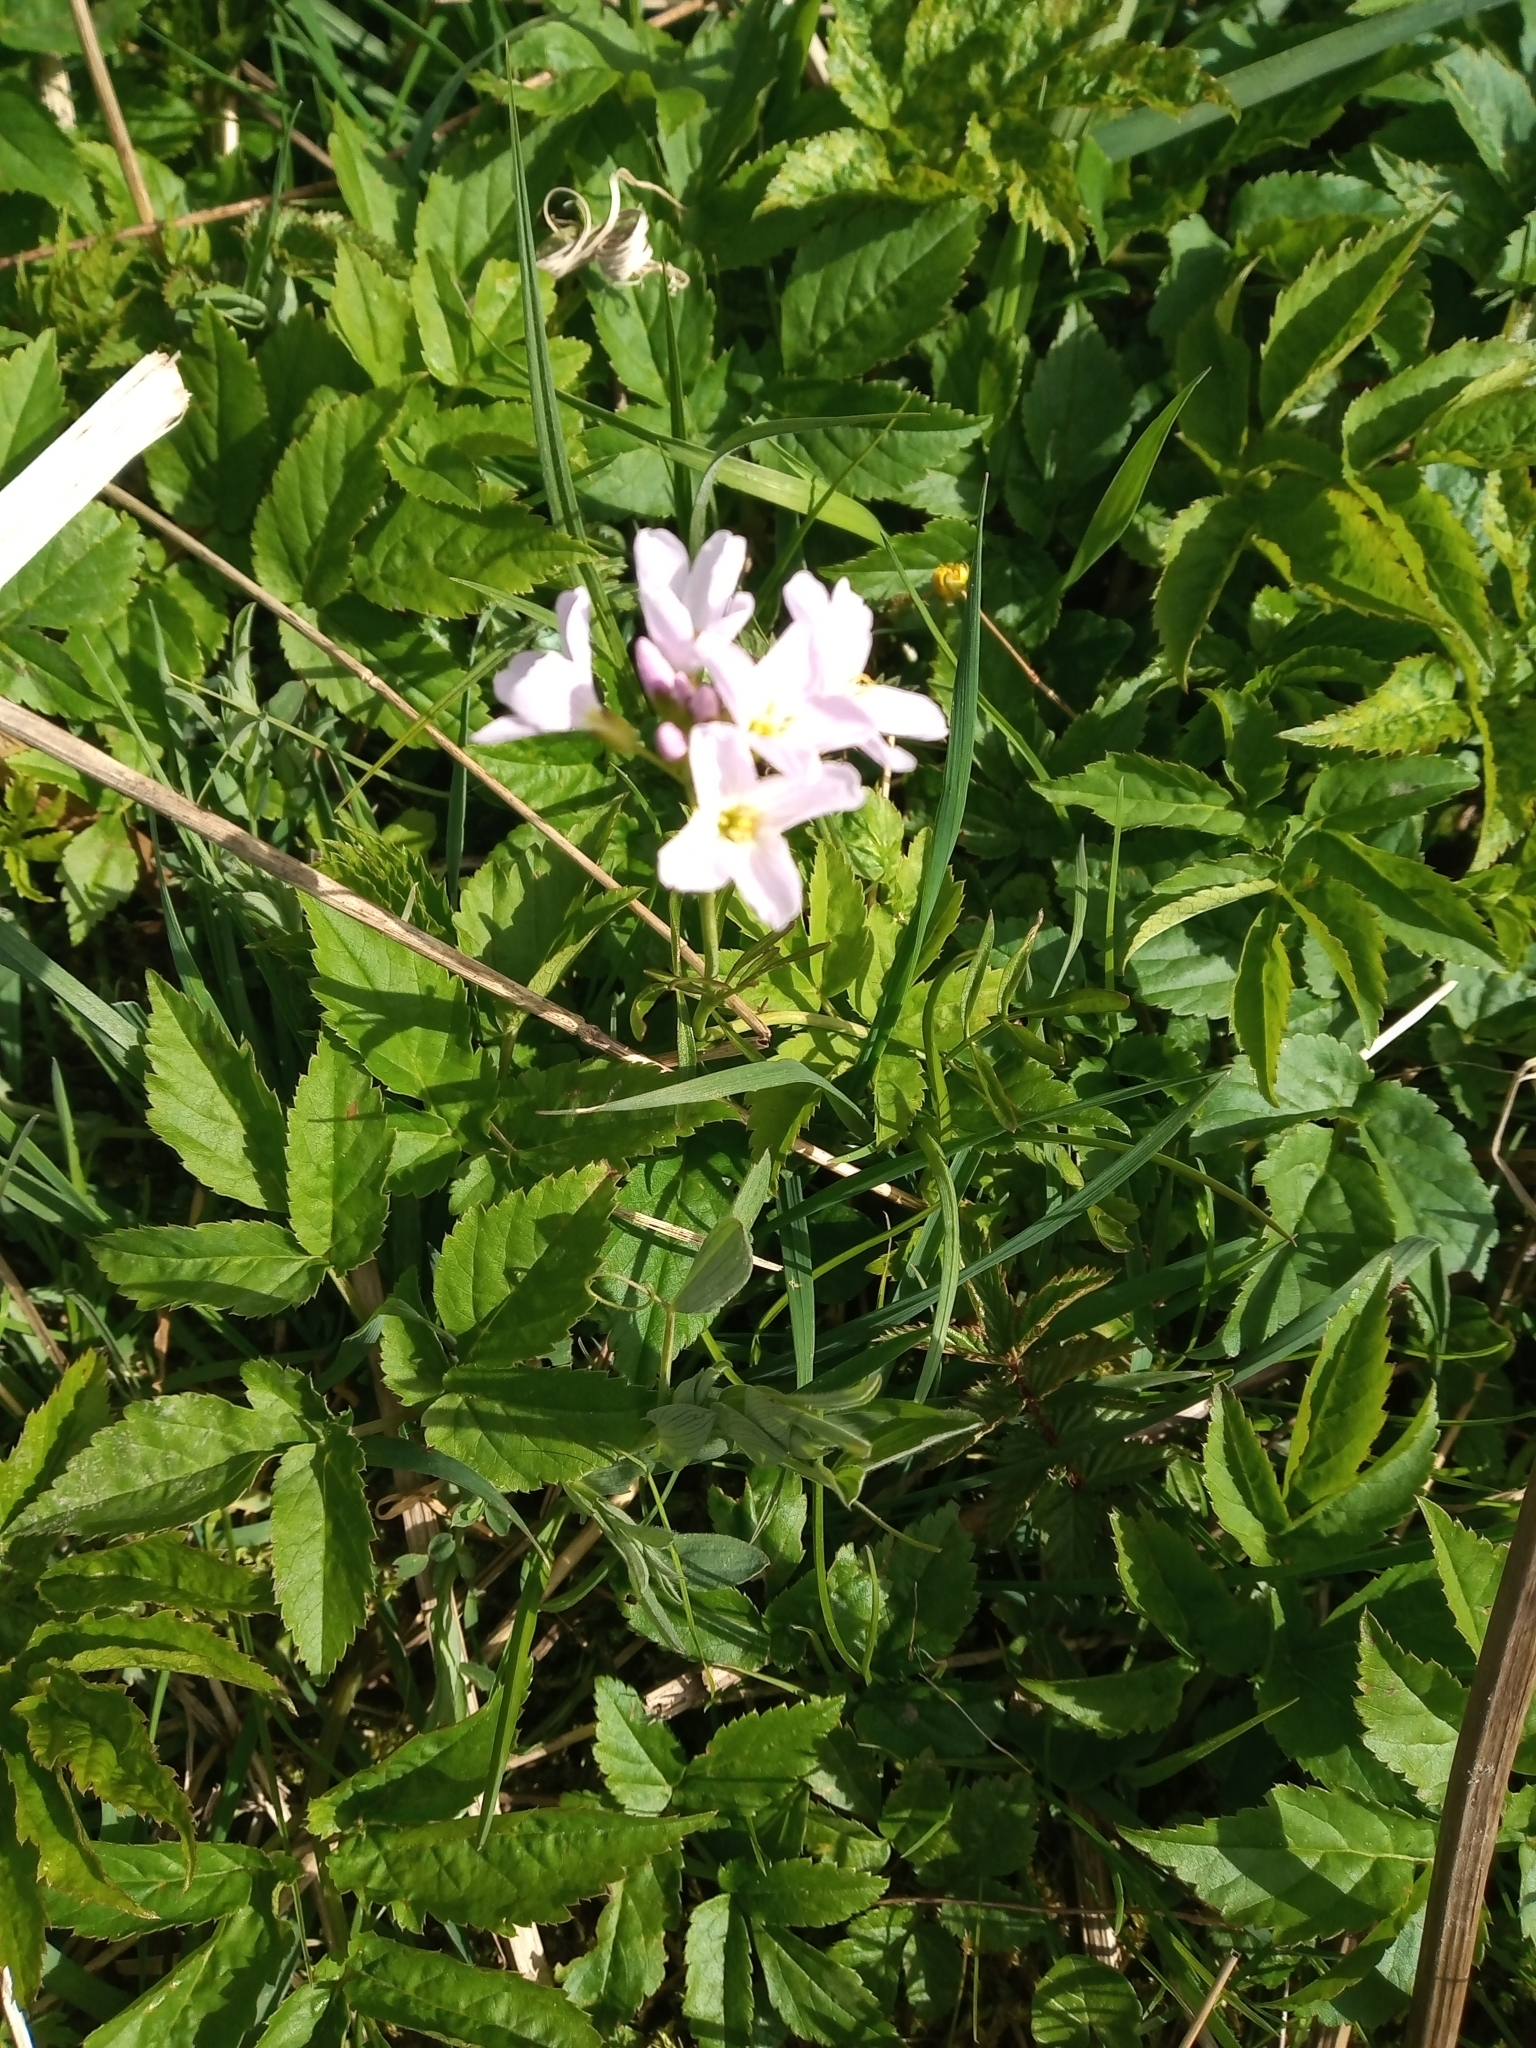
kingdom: Plantae
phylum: Tracheophyta
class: Magnoliopsida
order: Brassicales
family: Brassicaceae
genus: Cardamine
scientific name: Cardamine pratensis
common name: Cuckoo flower
